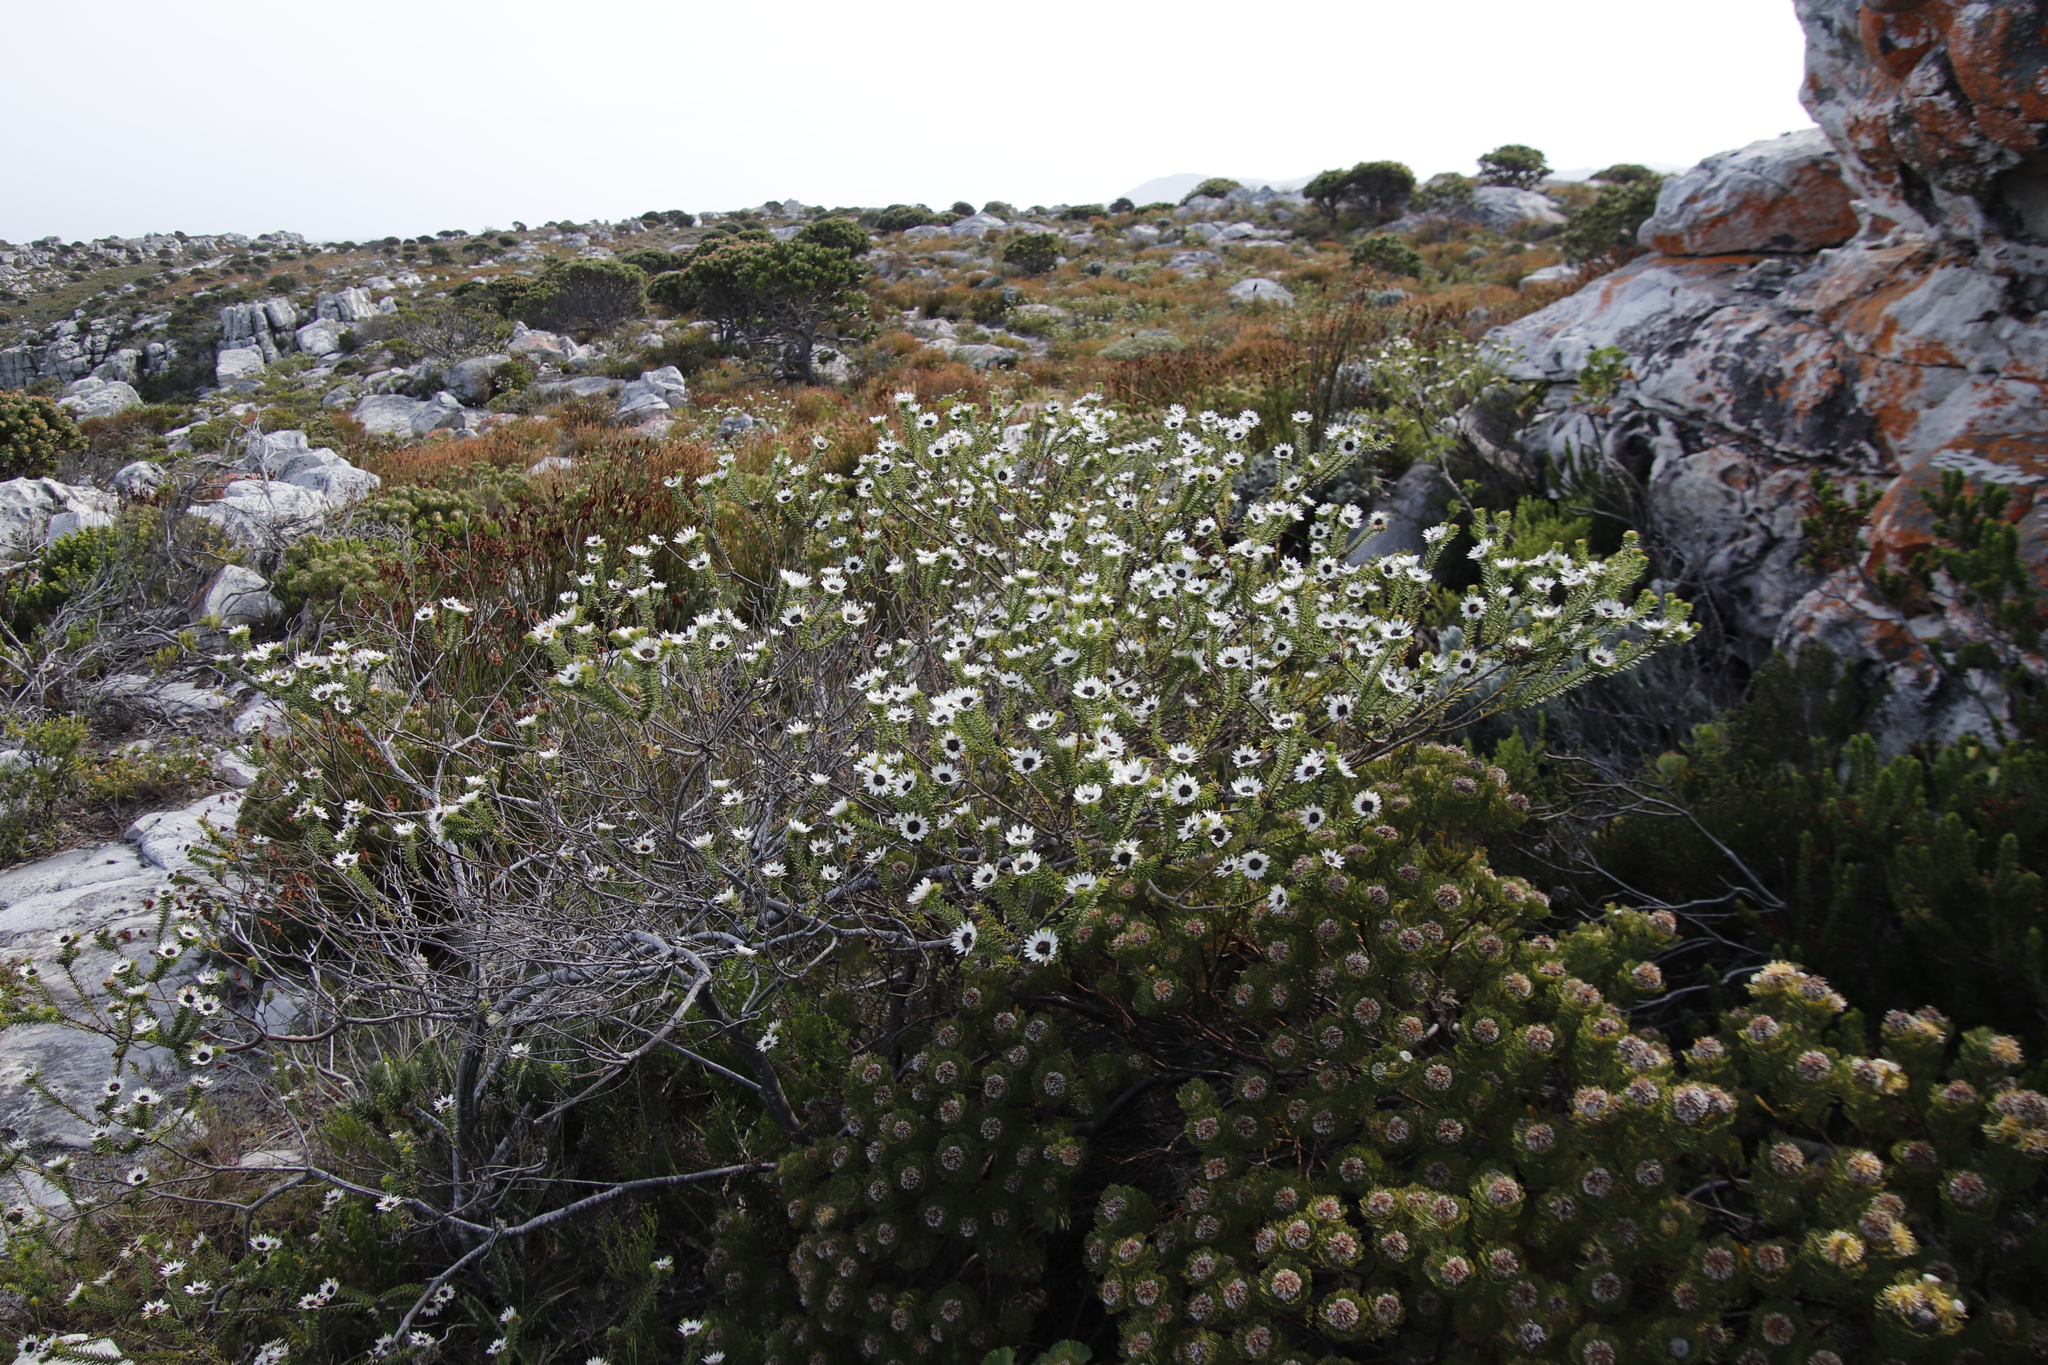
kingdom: Plantae
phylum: Tracheophyta
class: Magnoliopsida
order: Bruniales
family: Bruniaceae
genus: Staavia
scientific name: Staavia dodii
